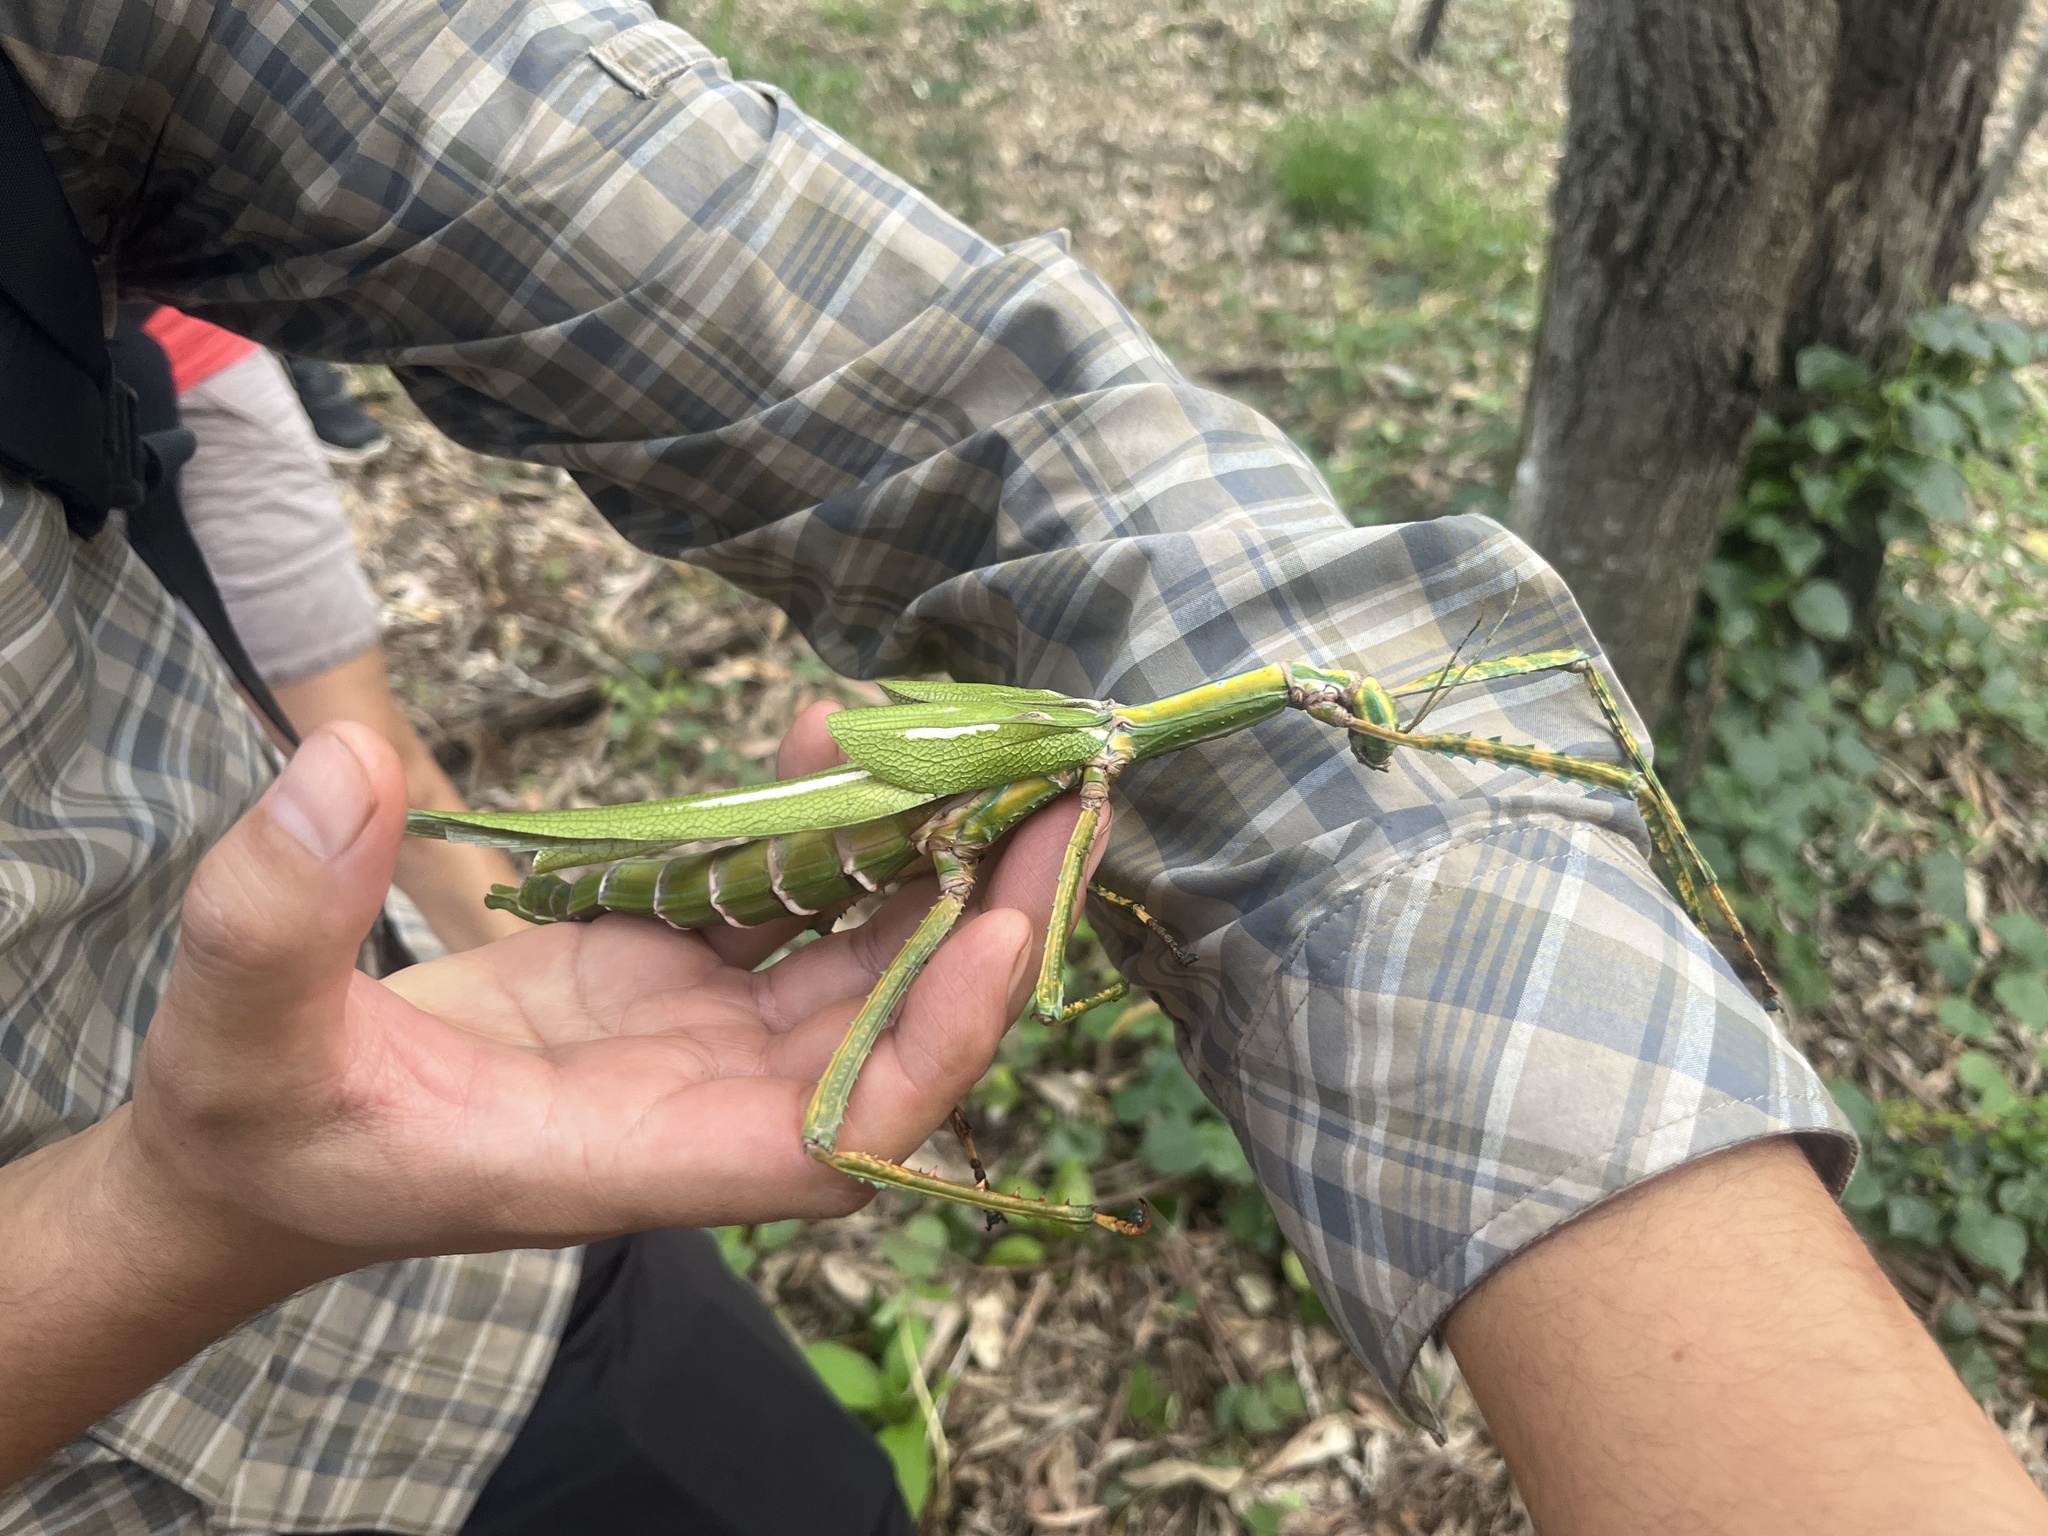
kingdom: Animalia
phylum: Arthropoda
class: Insecta
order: Phasmida
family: Phasmatidae
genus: Eurycnema
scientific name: Eurycnema goliath
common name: Goliath stick insect
